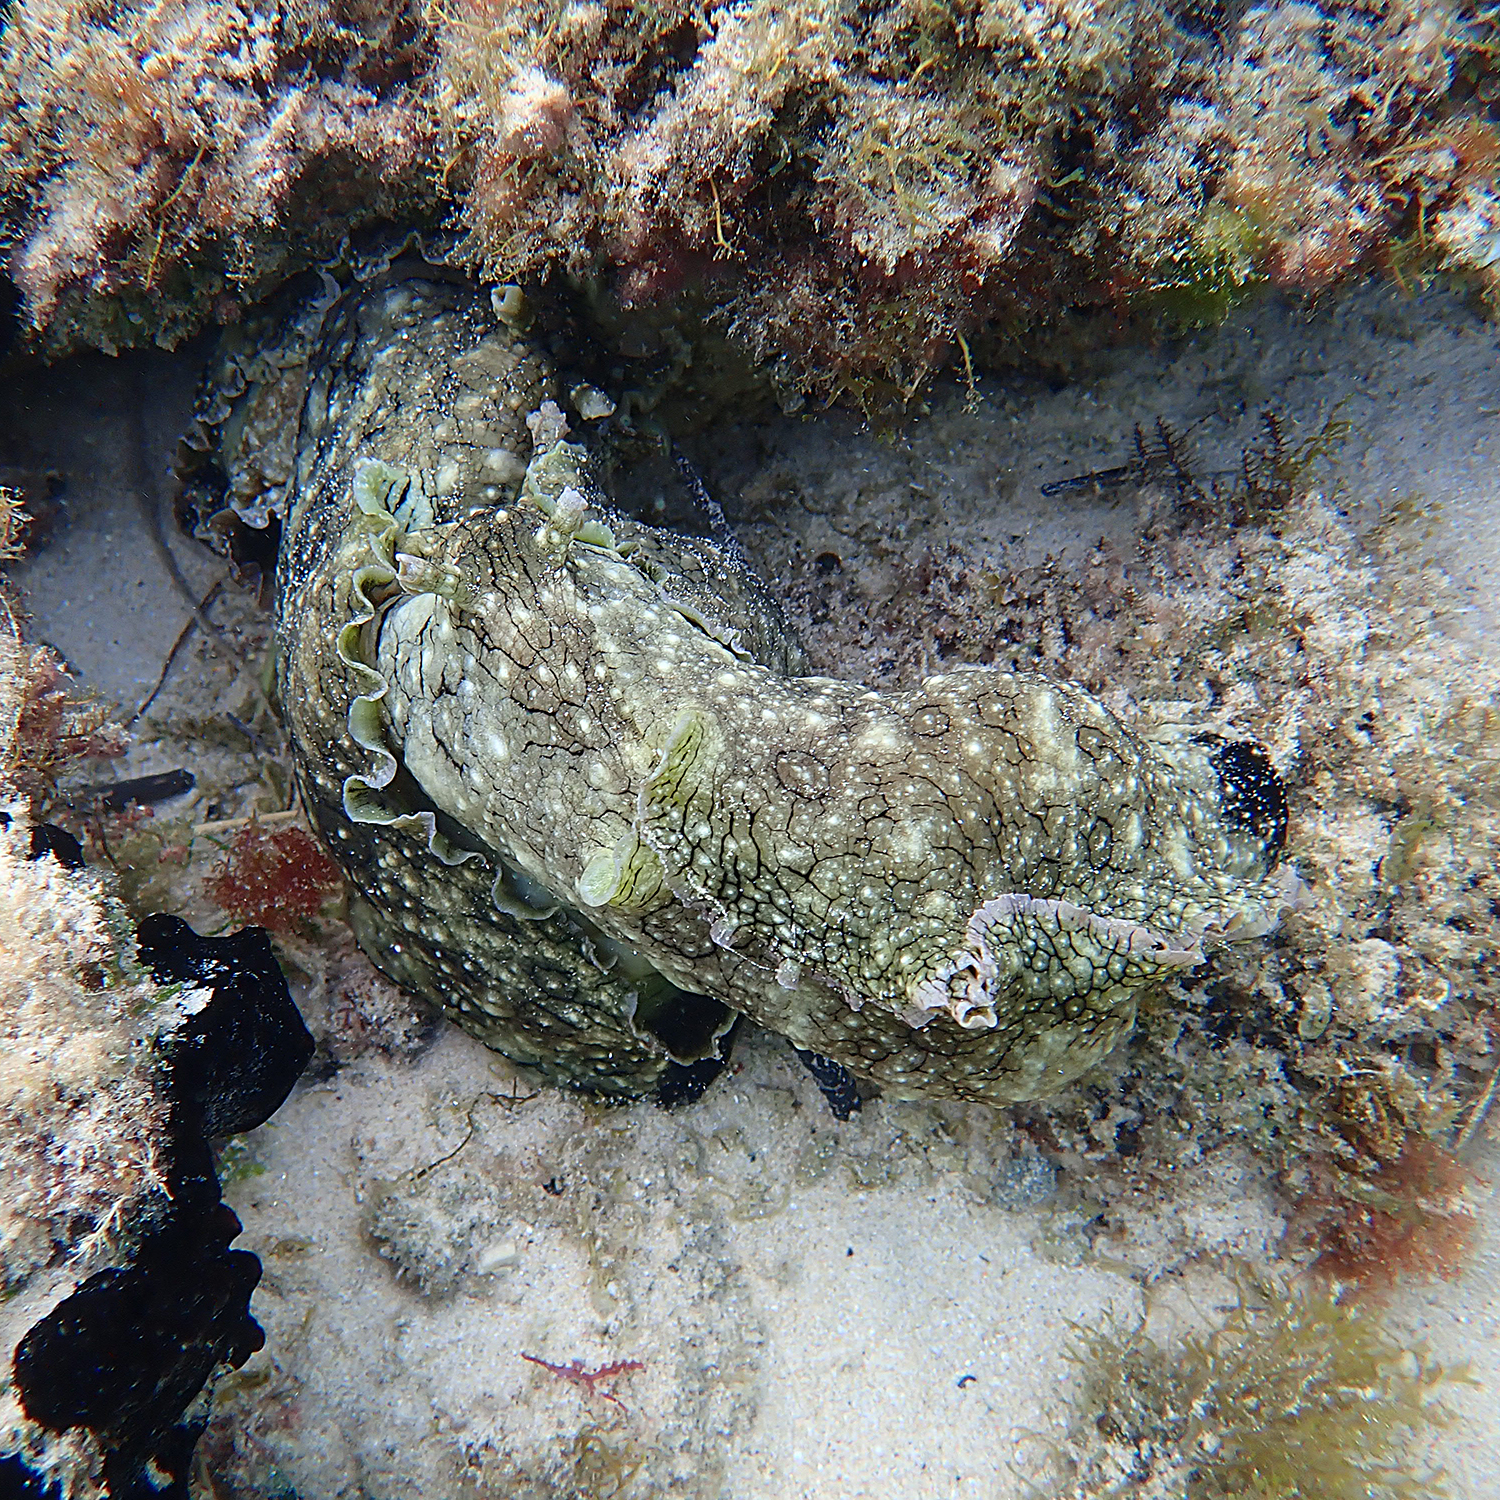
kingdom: Animalia
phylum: Mollusca
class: Gastropoda
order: Aplysiida
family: Aplysiidae
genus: Aplysia
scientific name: Aplysia argus
